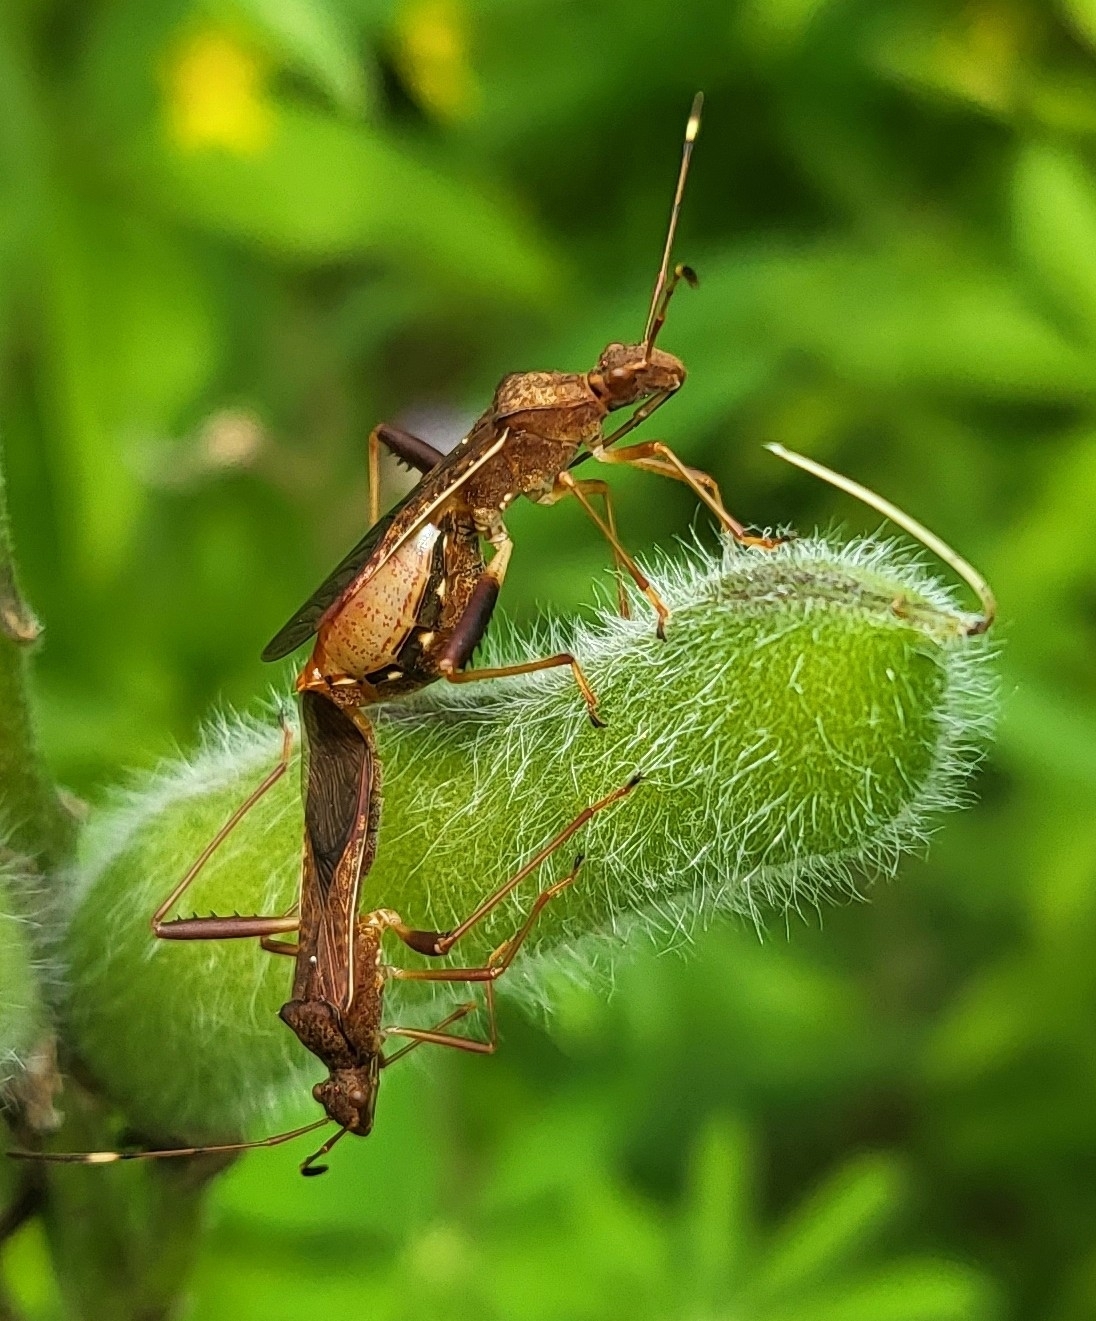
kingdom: Animalia
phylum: Arthropoda
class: Insecta
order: Hemiptera
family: Alydidae
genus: Megalotomus
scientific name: Megalotomus quinquespinosus
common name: Lupine bug
